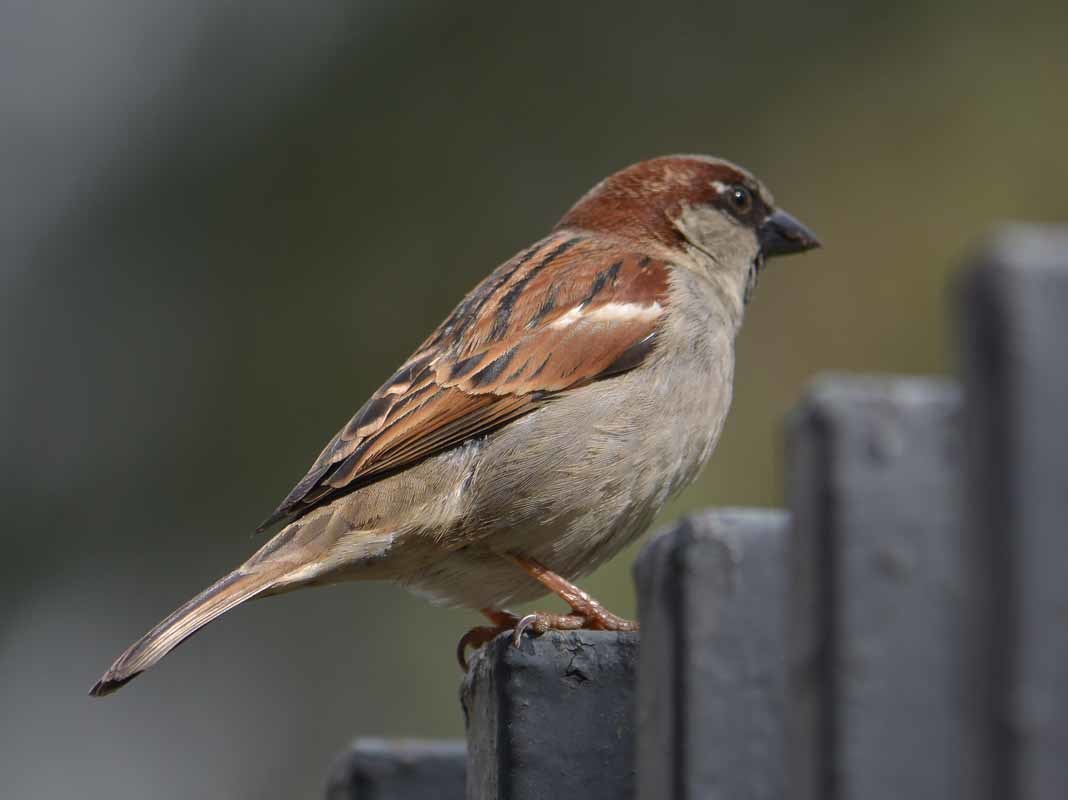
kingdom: Animalia
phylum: Chordata
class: Aves
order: Passeriformes
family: Passeridae
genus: Passer
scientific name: Passer domesticus
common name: House sparrow
